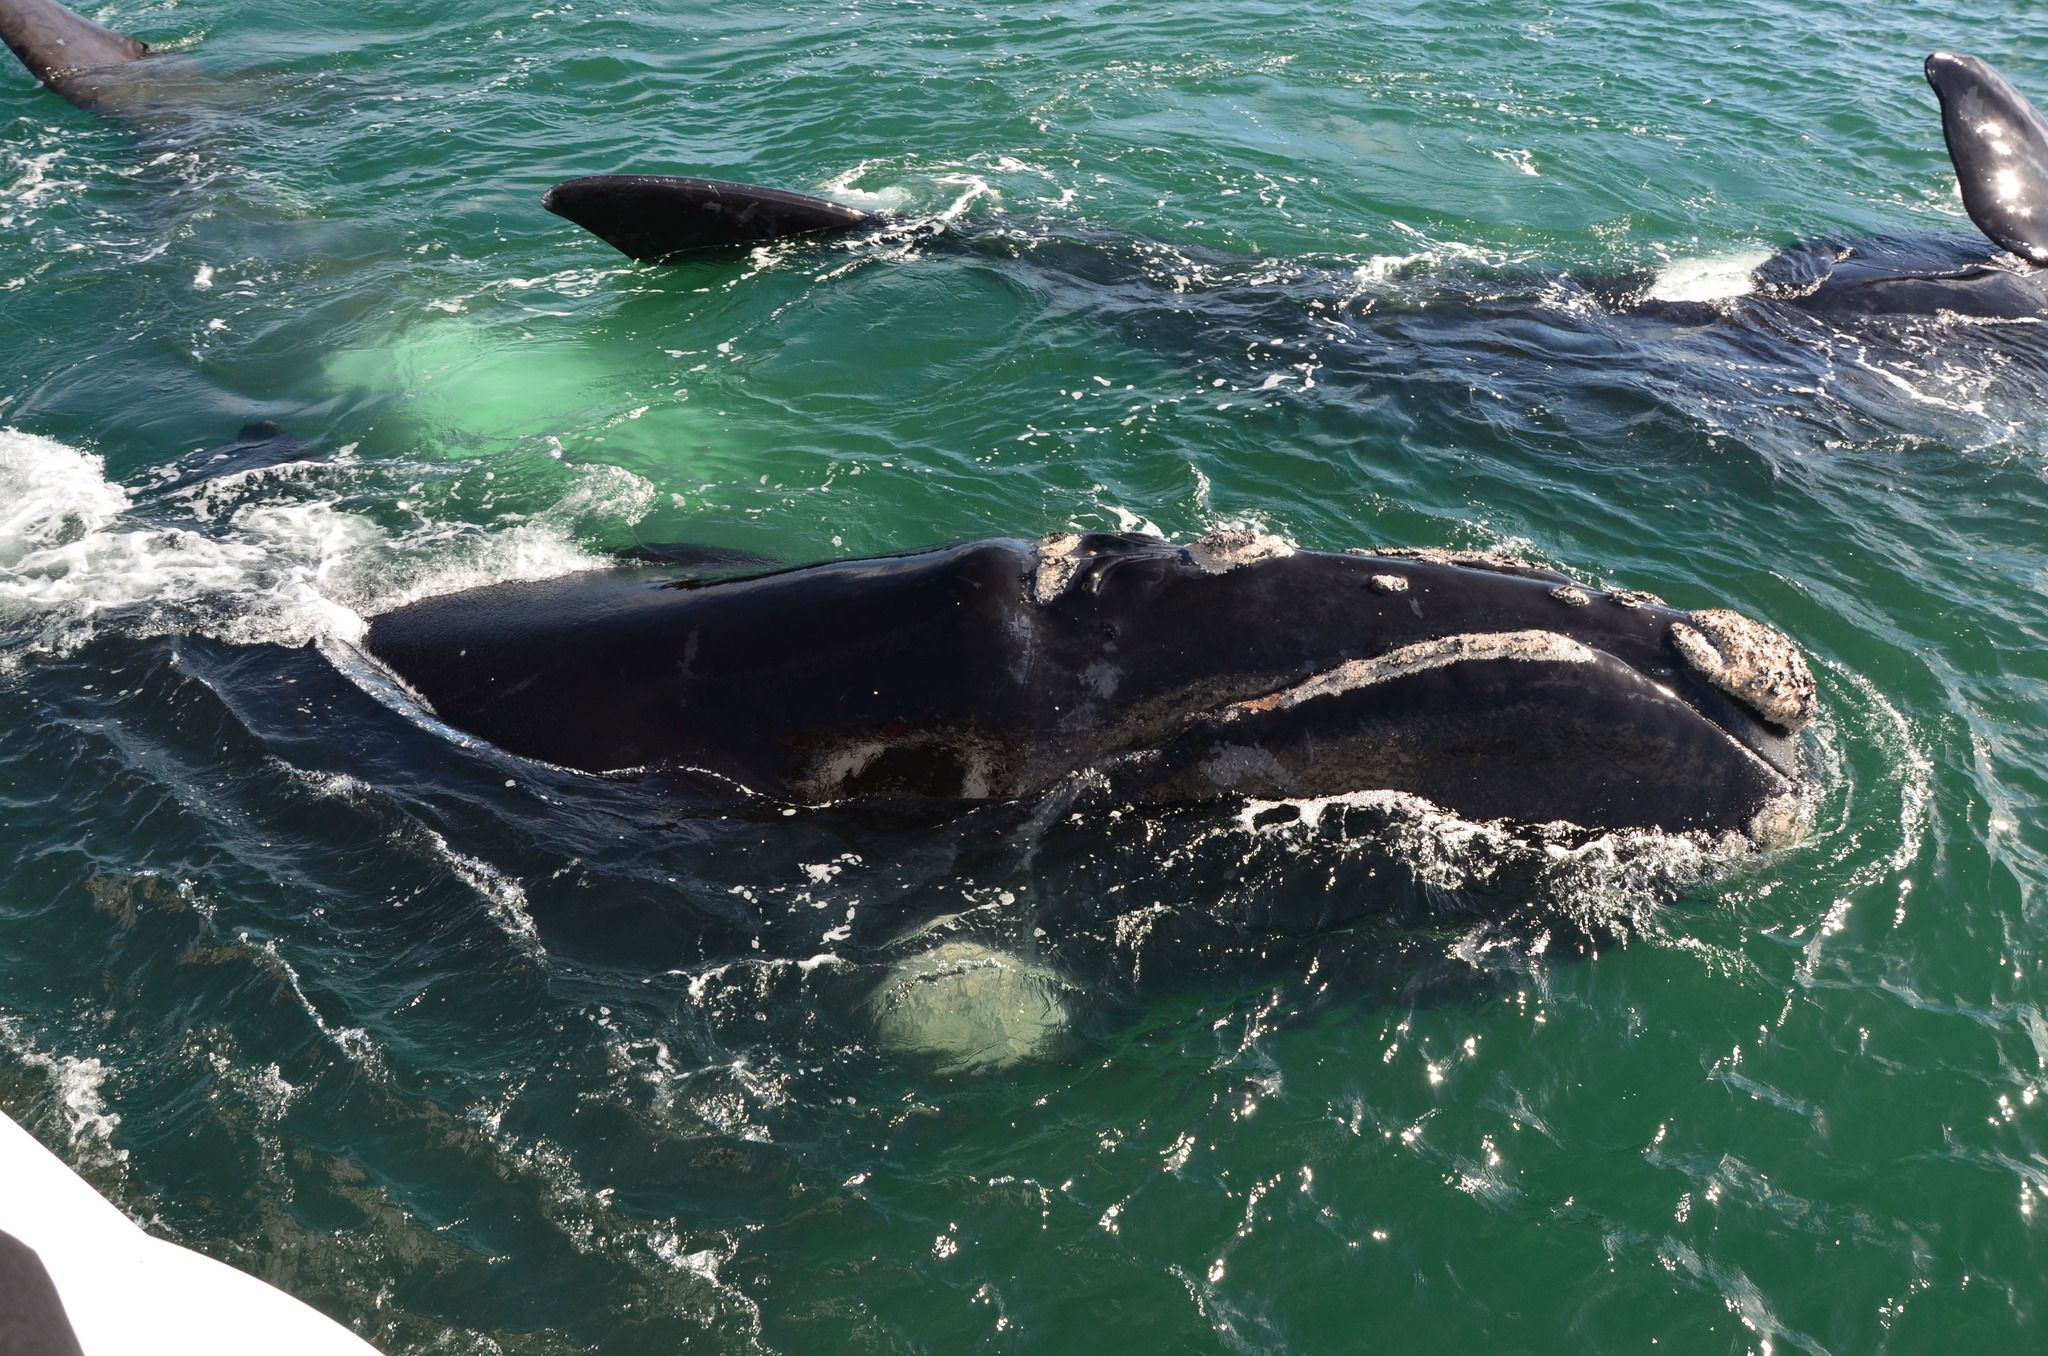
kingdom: Animalia
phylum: Chordata
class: Mammalia
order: Cetacea
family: Balaenidae
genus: Eubalaena
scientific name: Eubalaena australis
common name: Southern right whale
